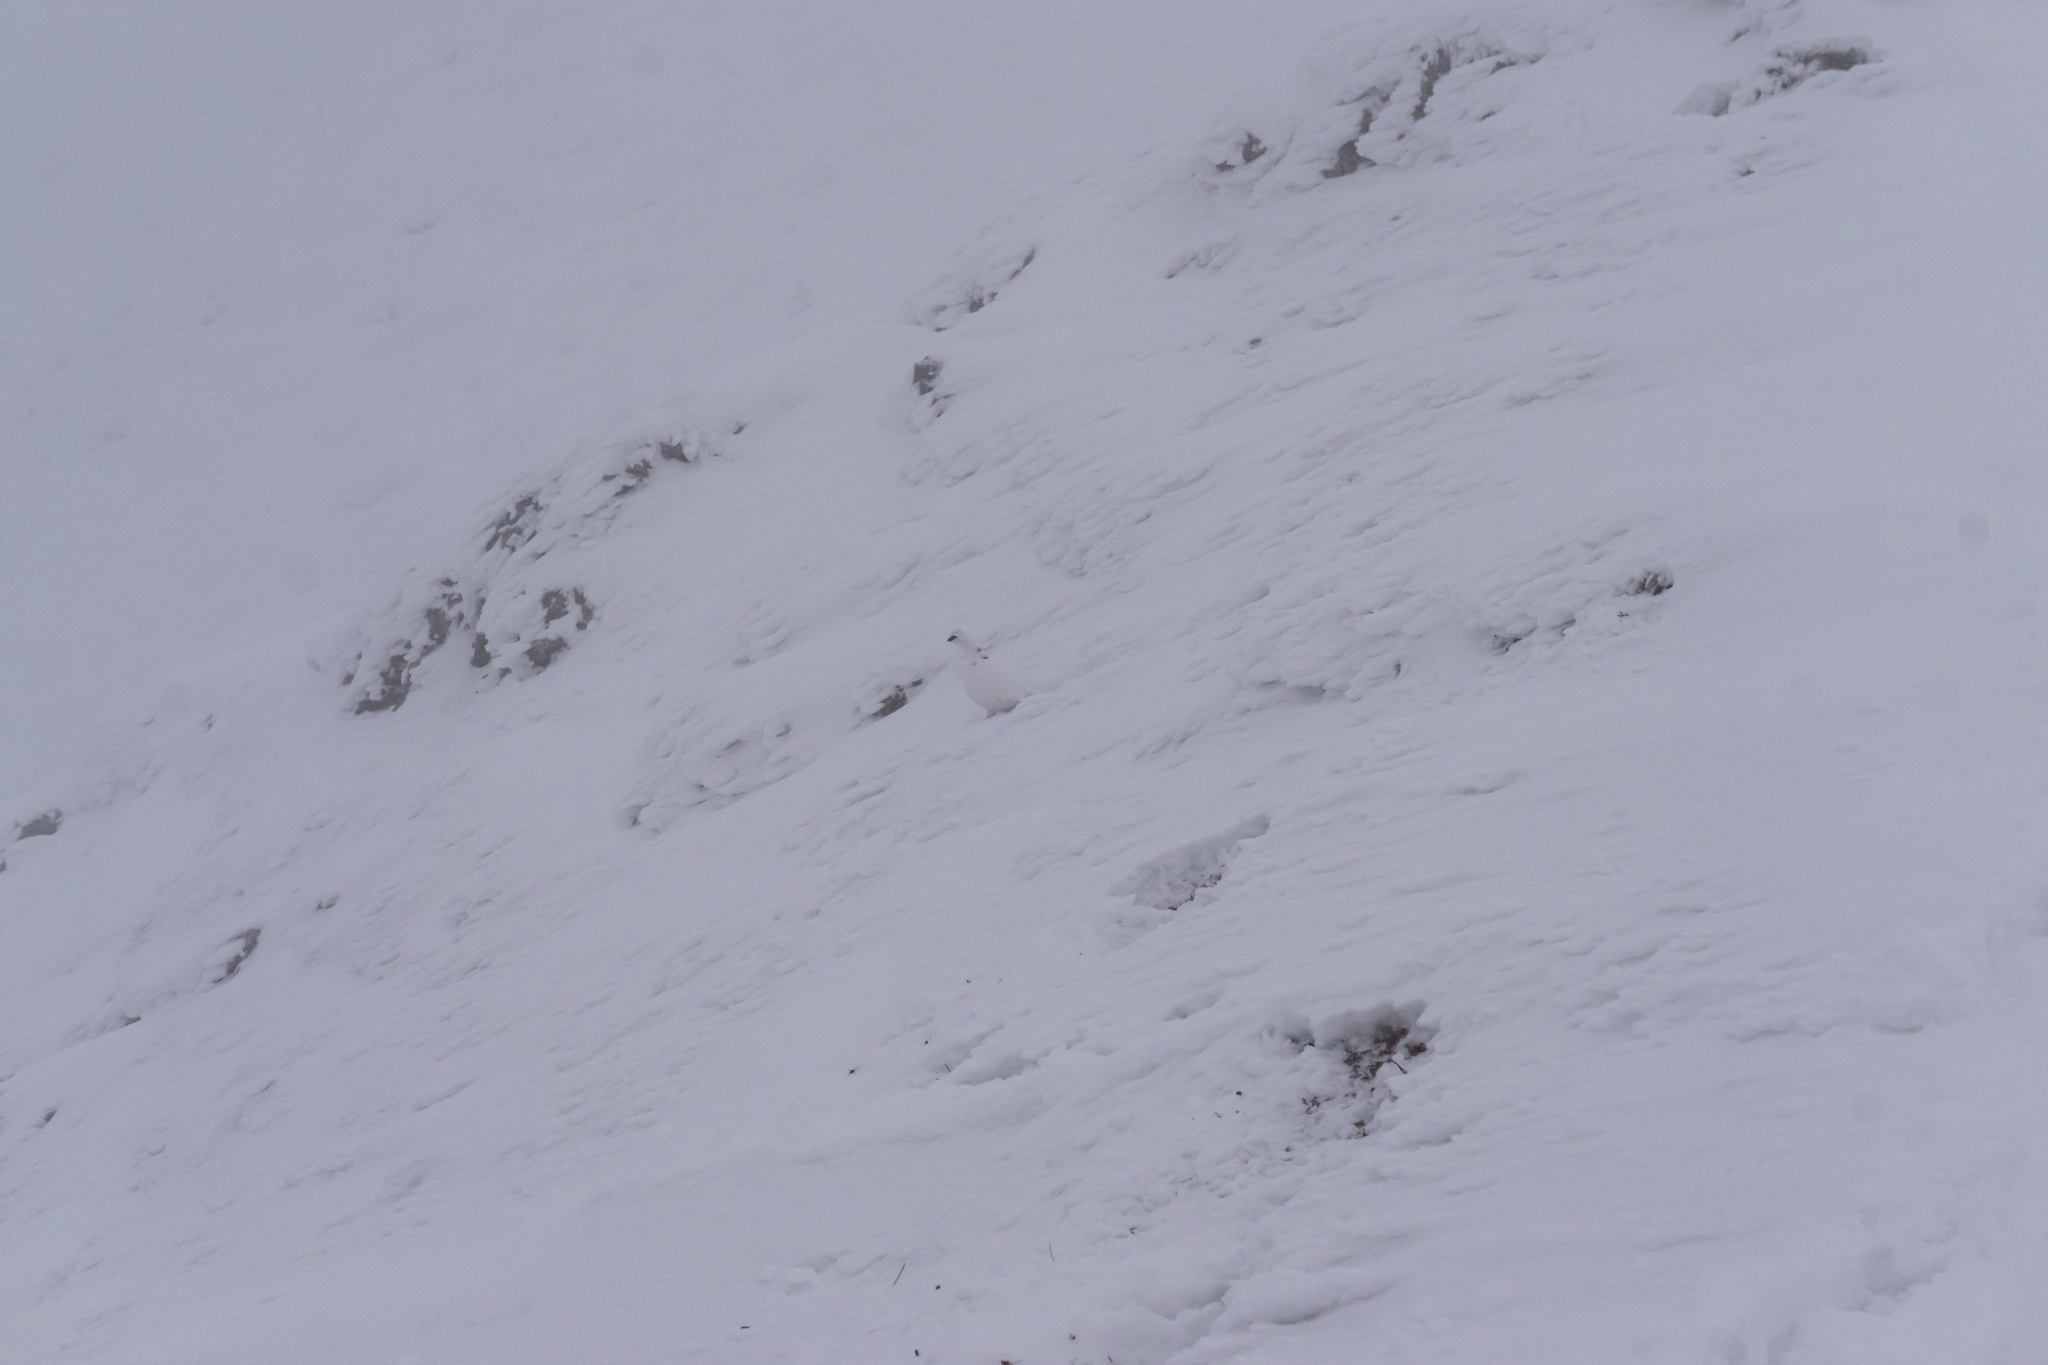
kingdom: Animalia
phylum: Chordata
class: Aves
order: Galliformes
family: Phasianidae
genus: Lagopus
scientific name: Lagopus muta
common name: Rock ptarmigan
